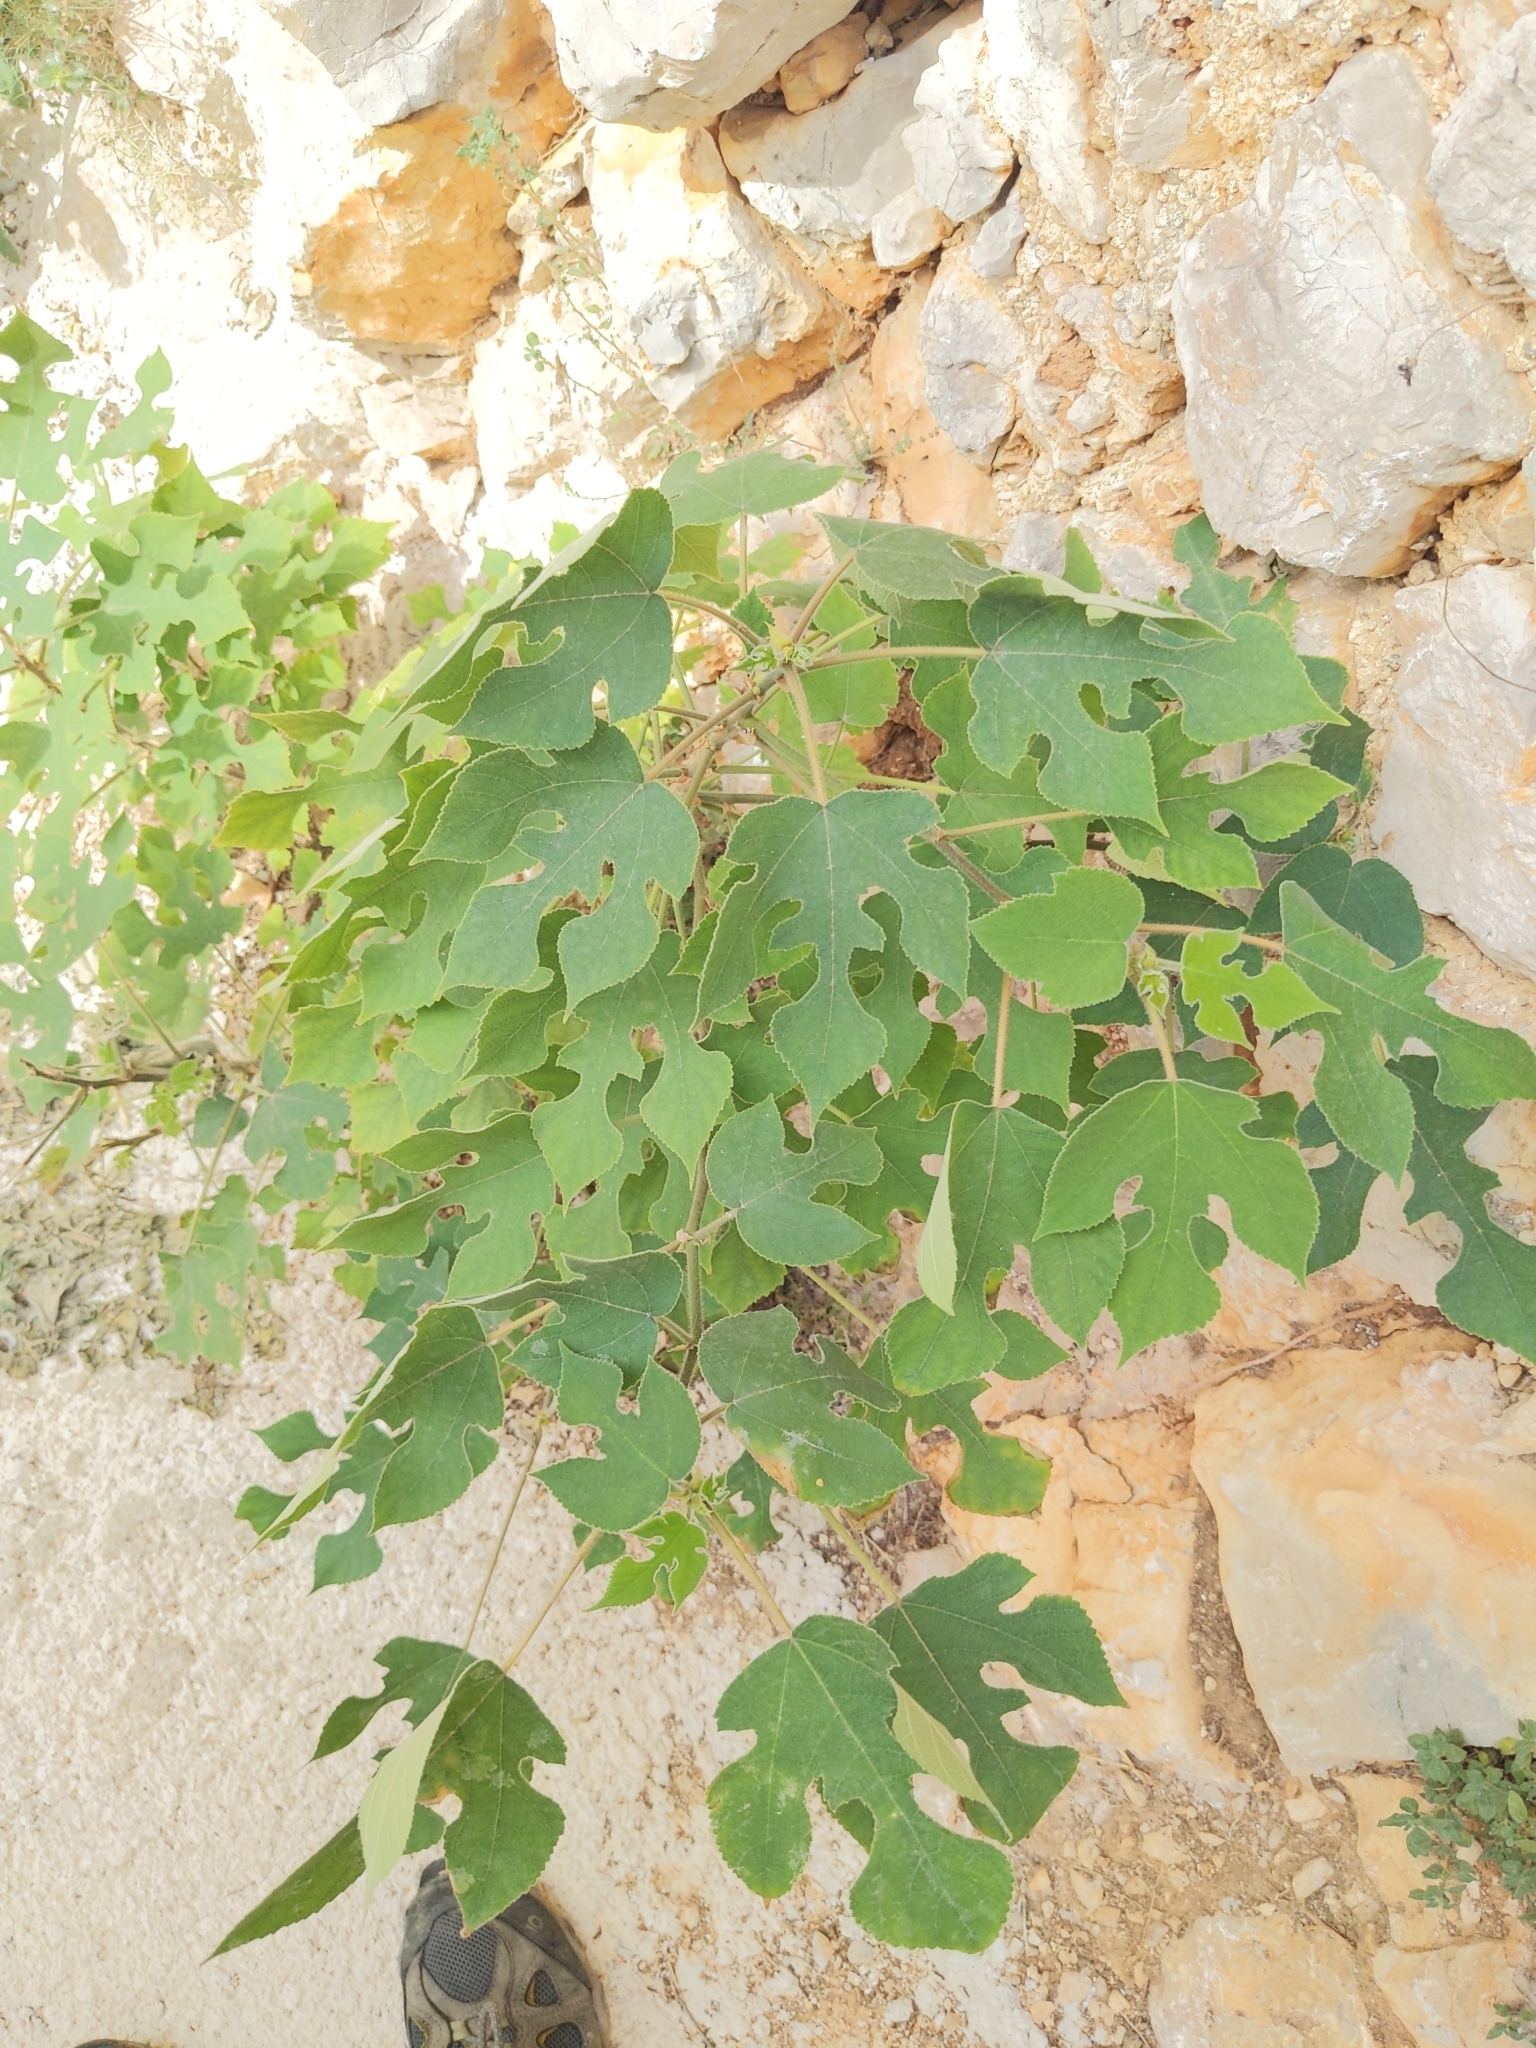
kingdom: Plantae
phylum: Tracheophyta
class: Magnoliopsida
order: Rosales
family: Moraceae
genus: Broussonetia
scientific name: Broussonetia papyrifera
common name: Paper mulberry
